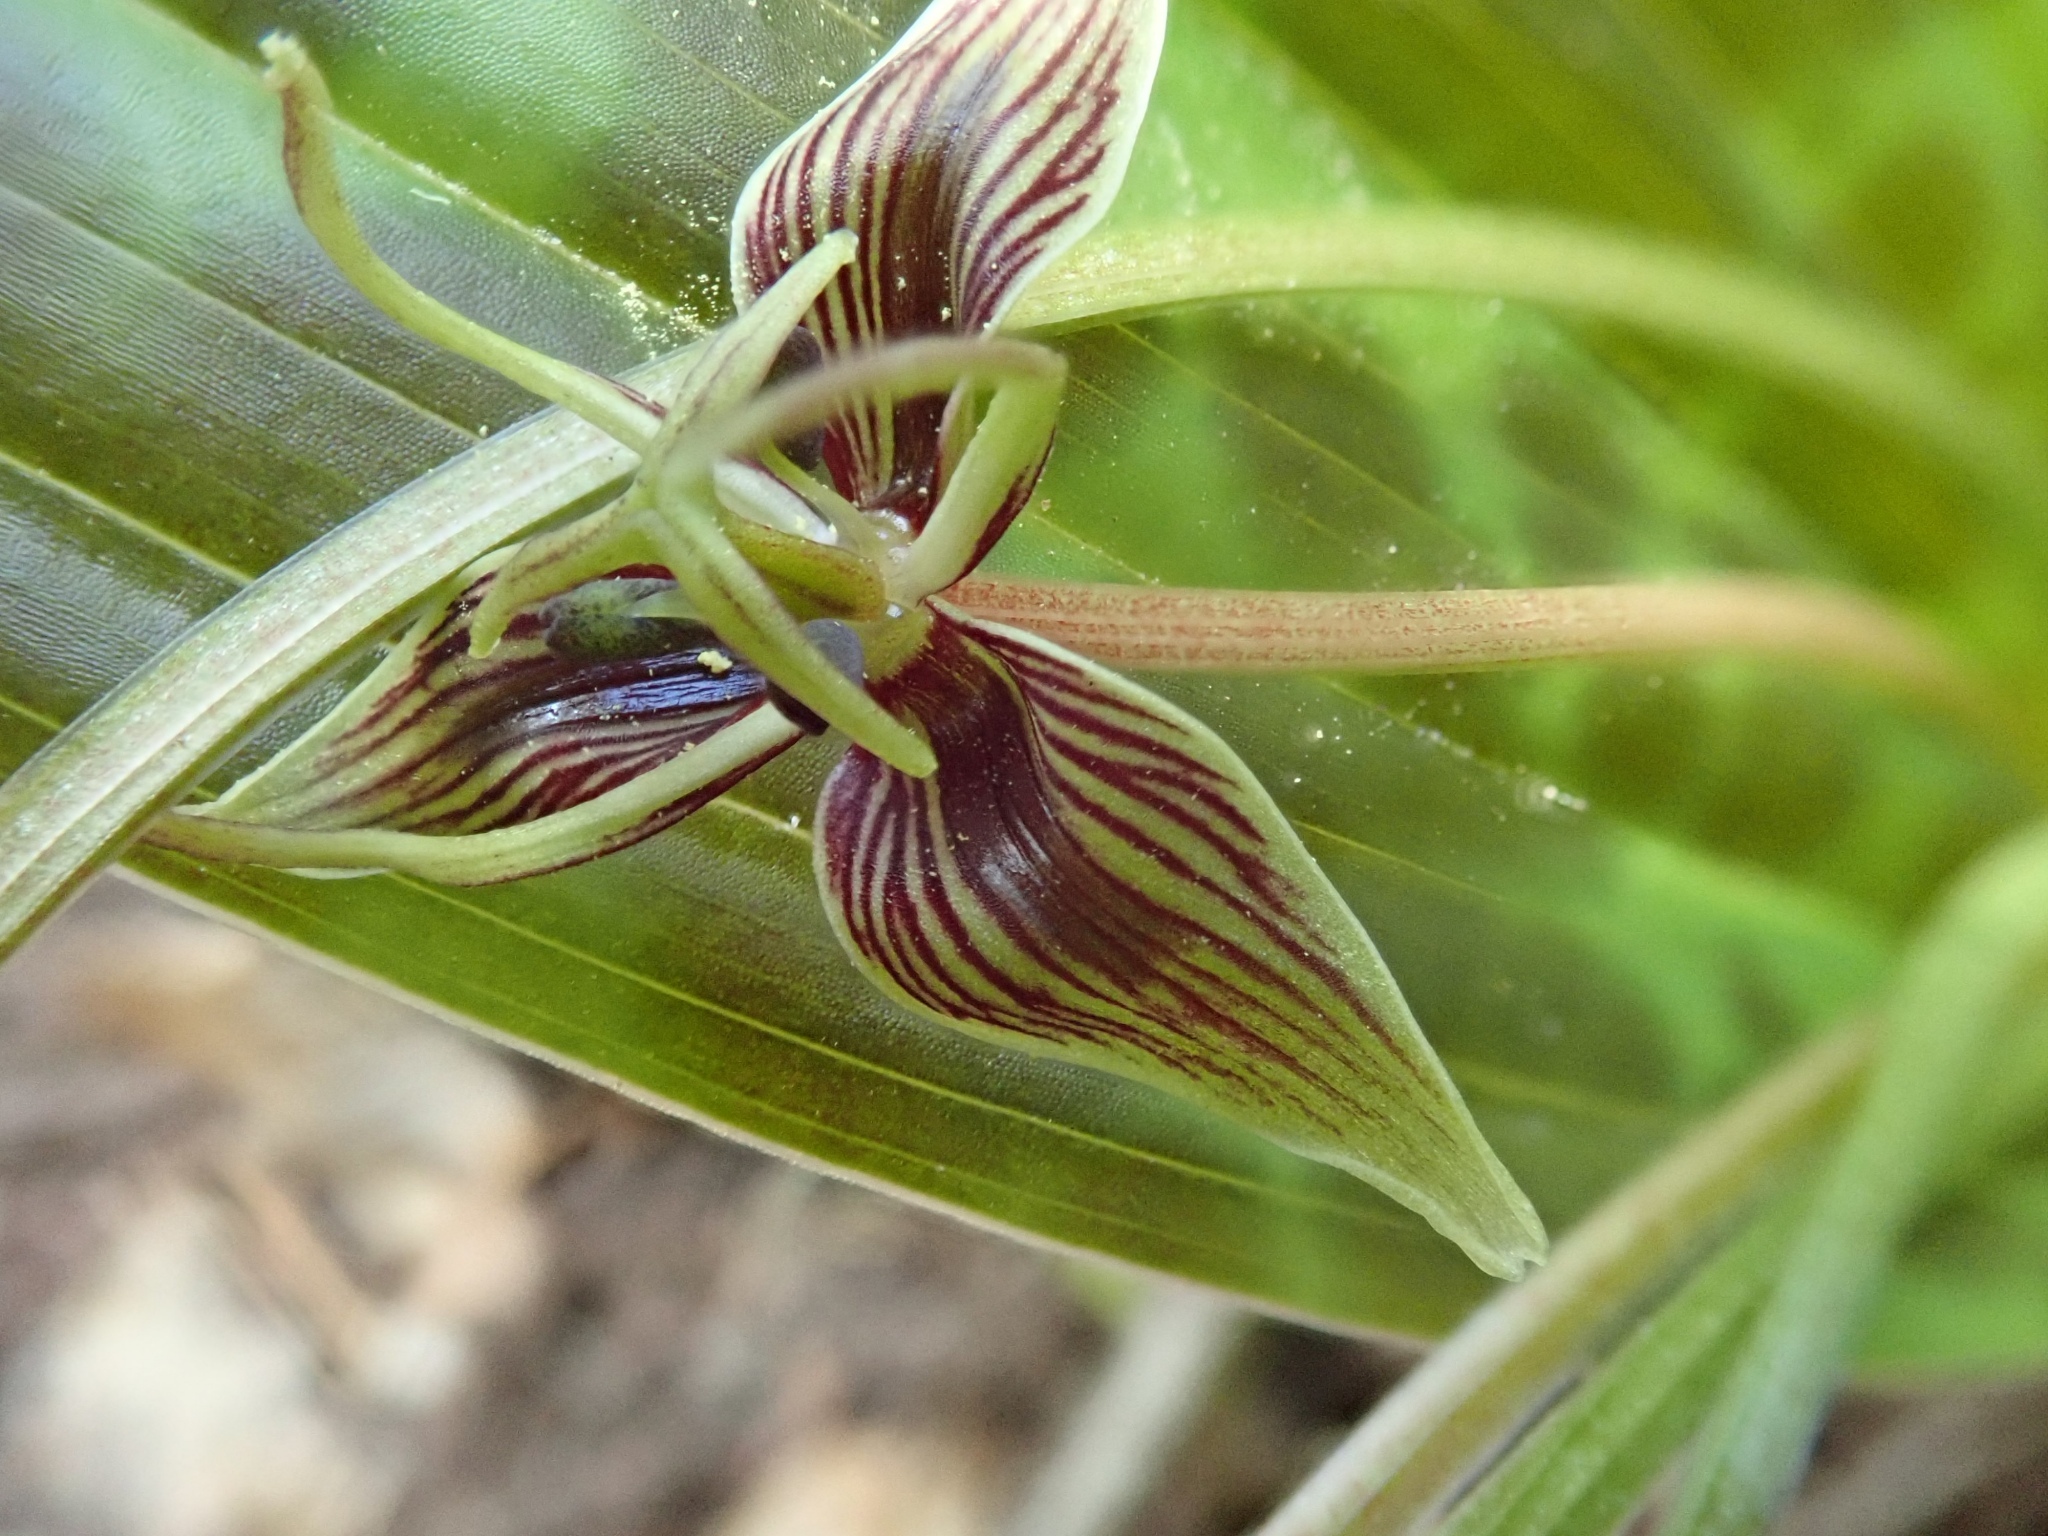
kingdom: Plantae
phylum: Tracheophyta
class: Liliopsida
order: Liliales
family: Liliaceae
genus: Scoliopus
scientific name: Scoliopus bigelovii
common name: Foetid adder's-tongue
